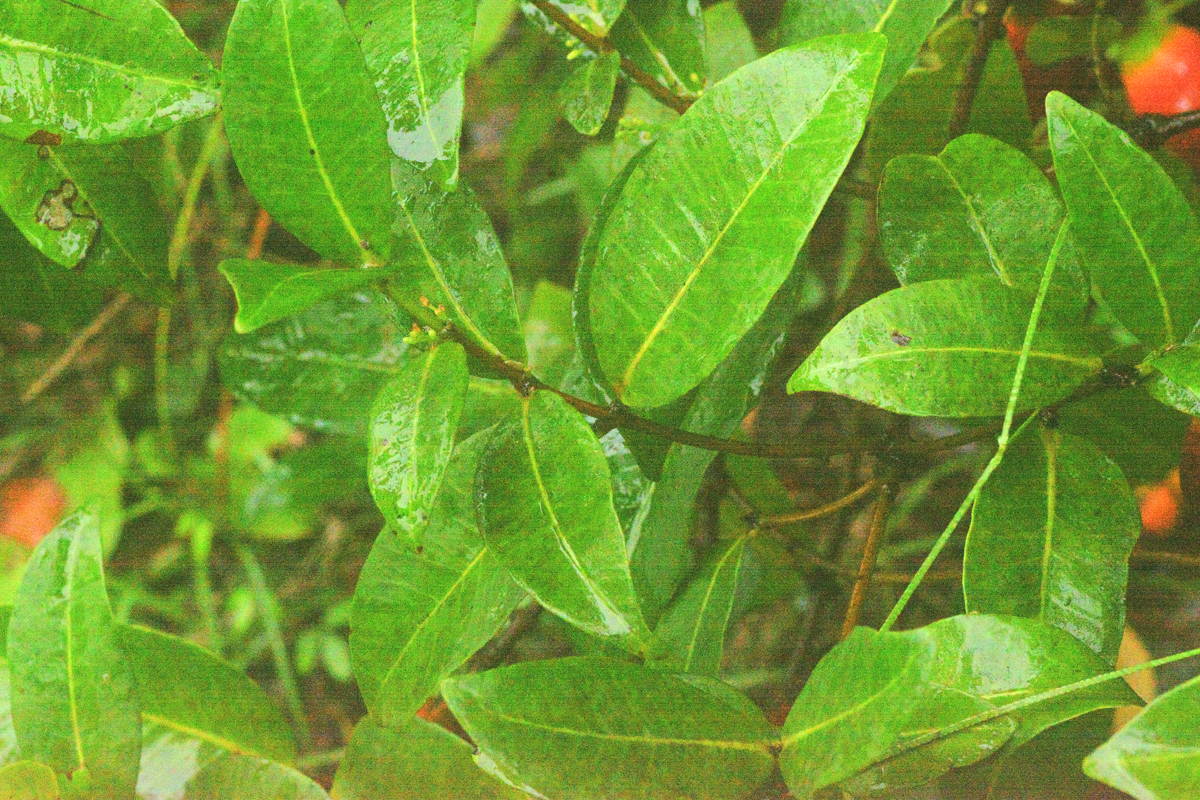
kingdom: Plantae
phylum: Tracheophyta
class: Magnoliopsida
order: Gentianales
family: Apocynaceae
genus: Melodinus
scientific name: Melodinus australis
